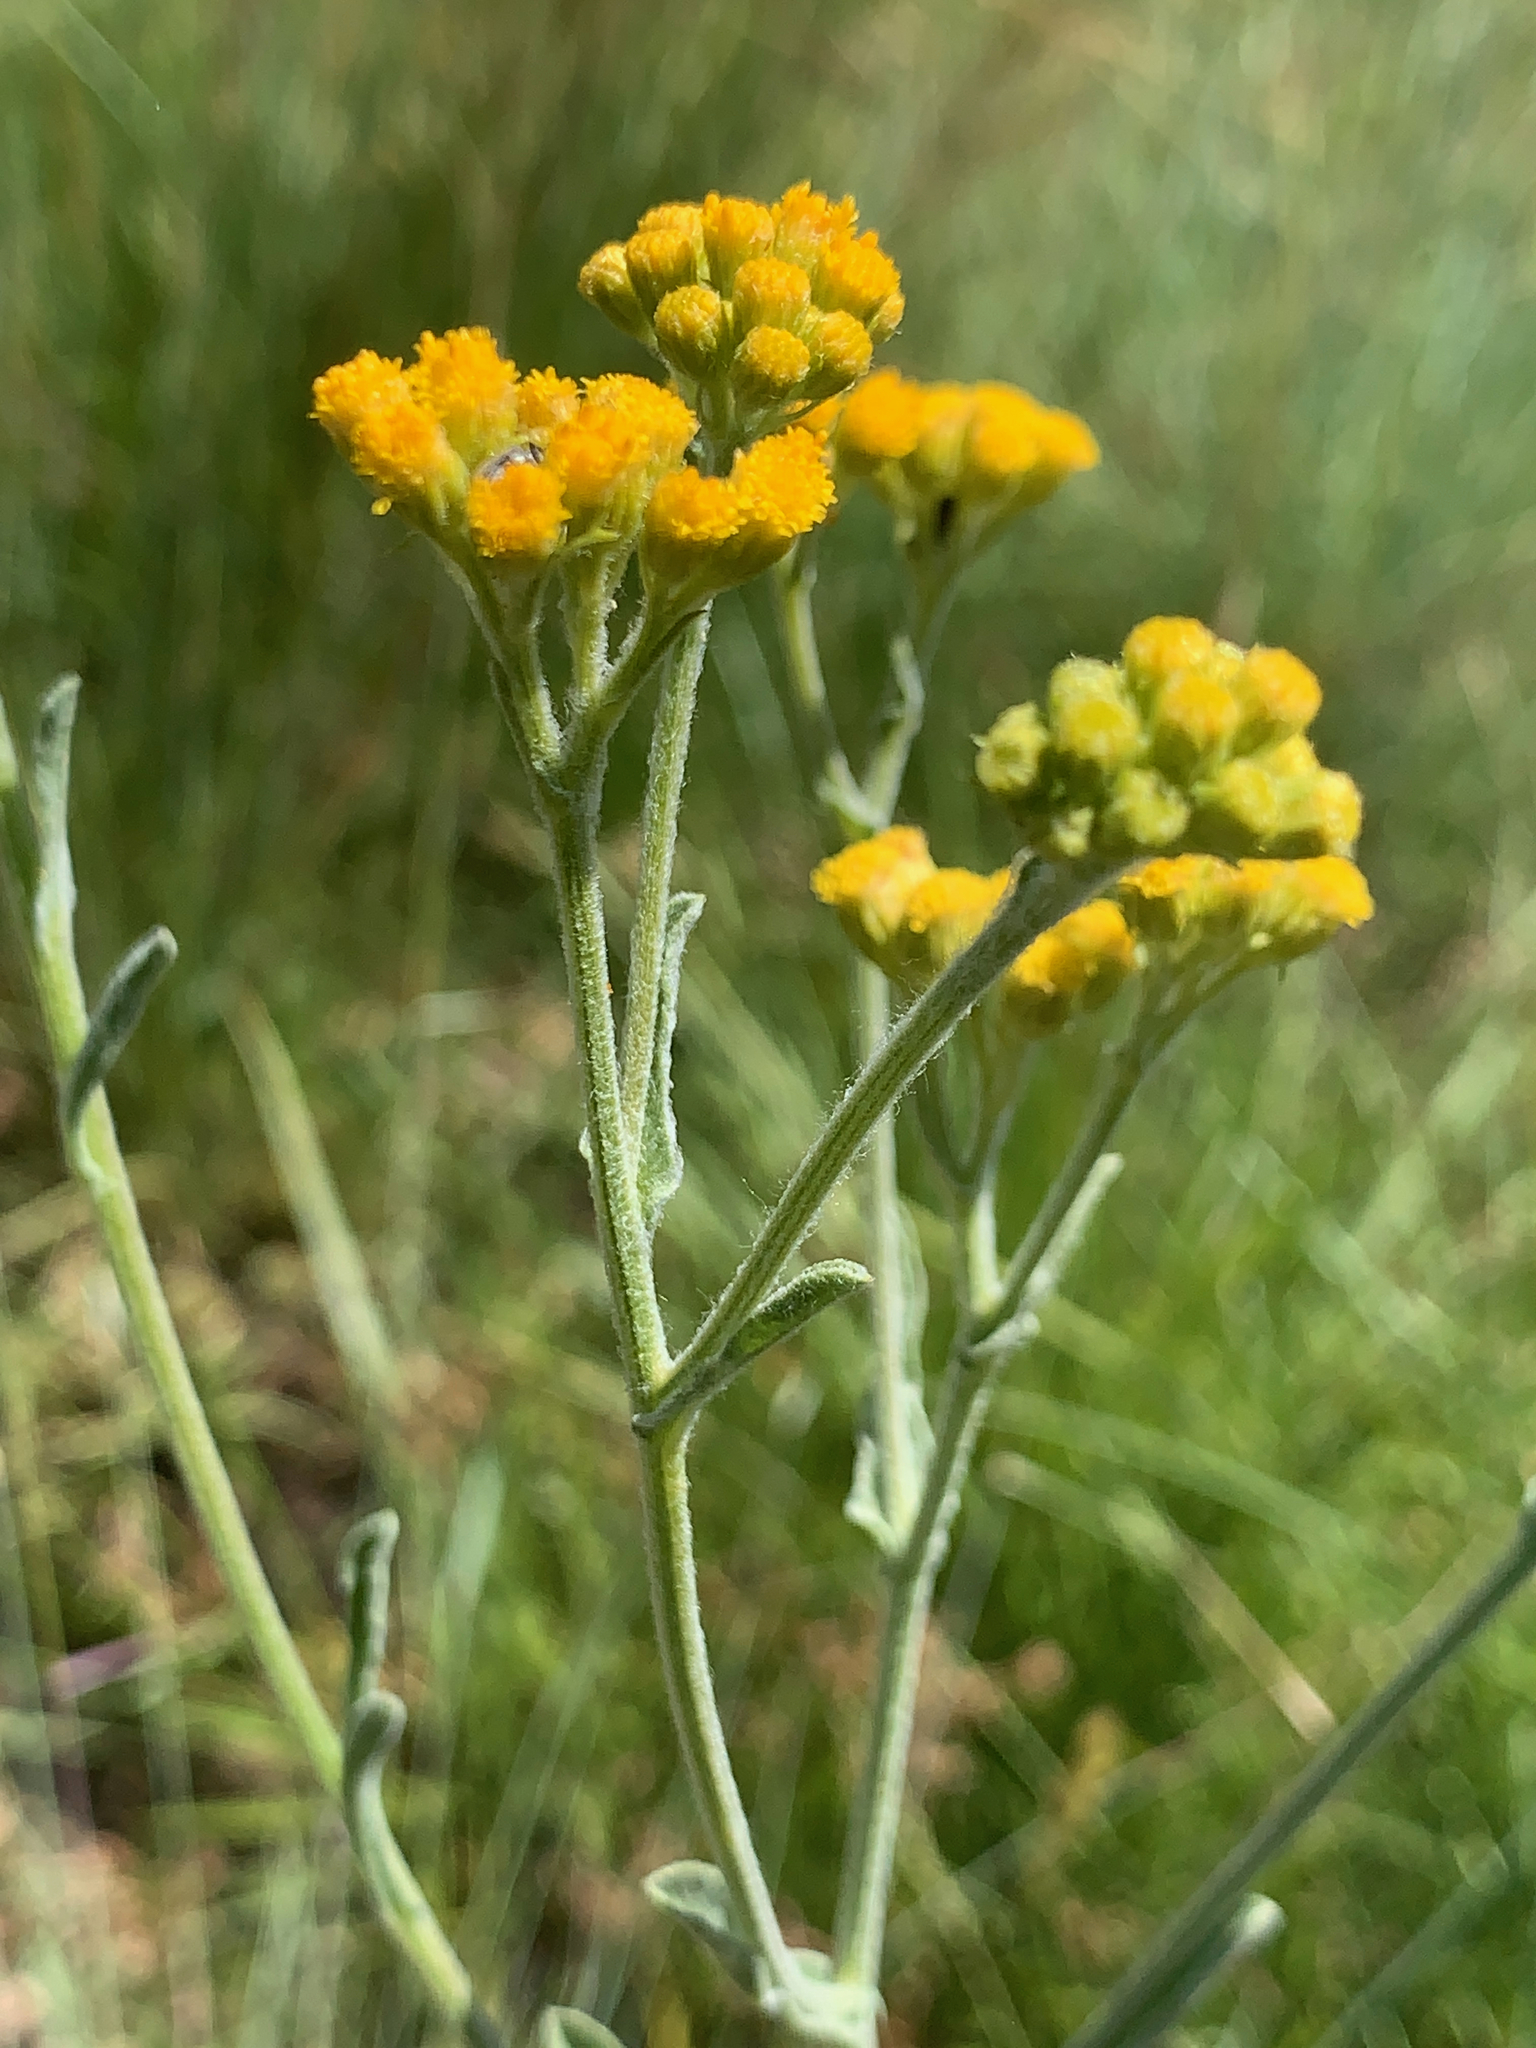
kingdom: Plantae
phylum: Tracheophyta
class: Magnoliopsida
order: Asterales
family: Asteraceae
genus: Nidorella
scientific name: Nidorella hottentotica
